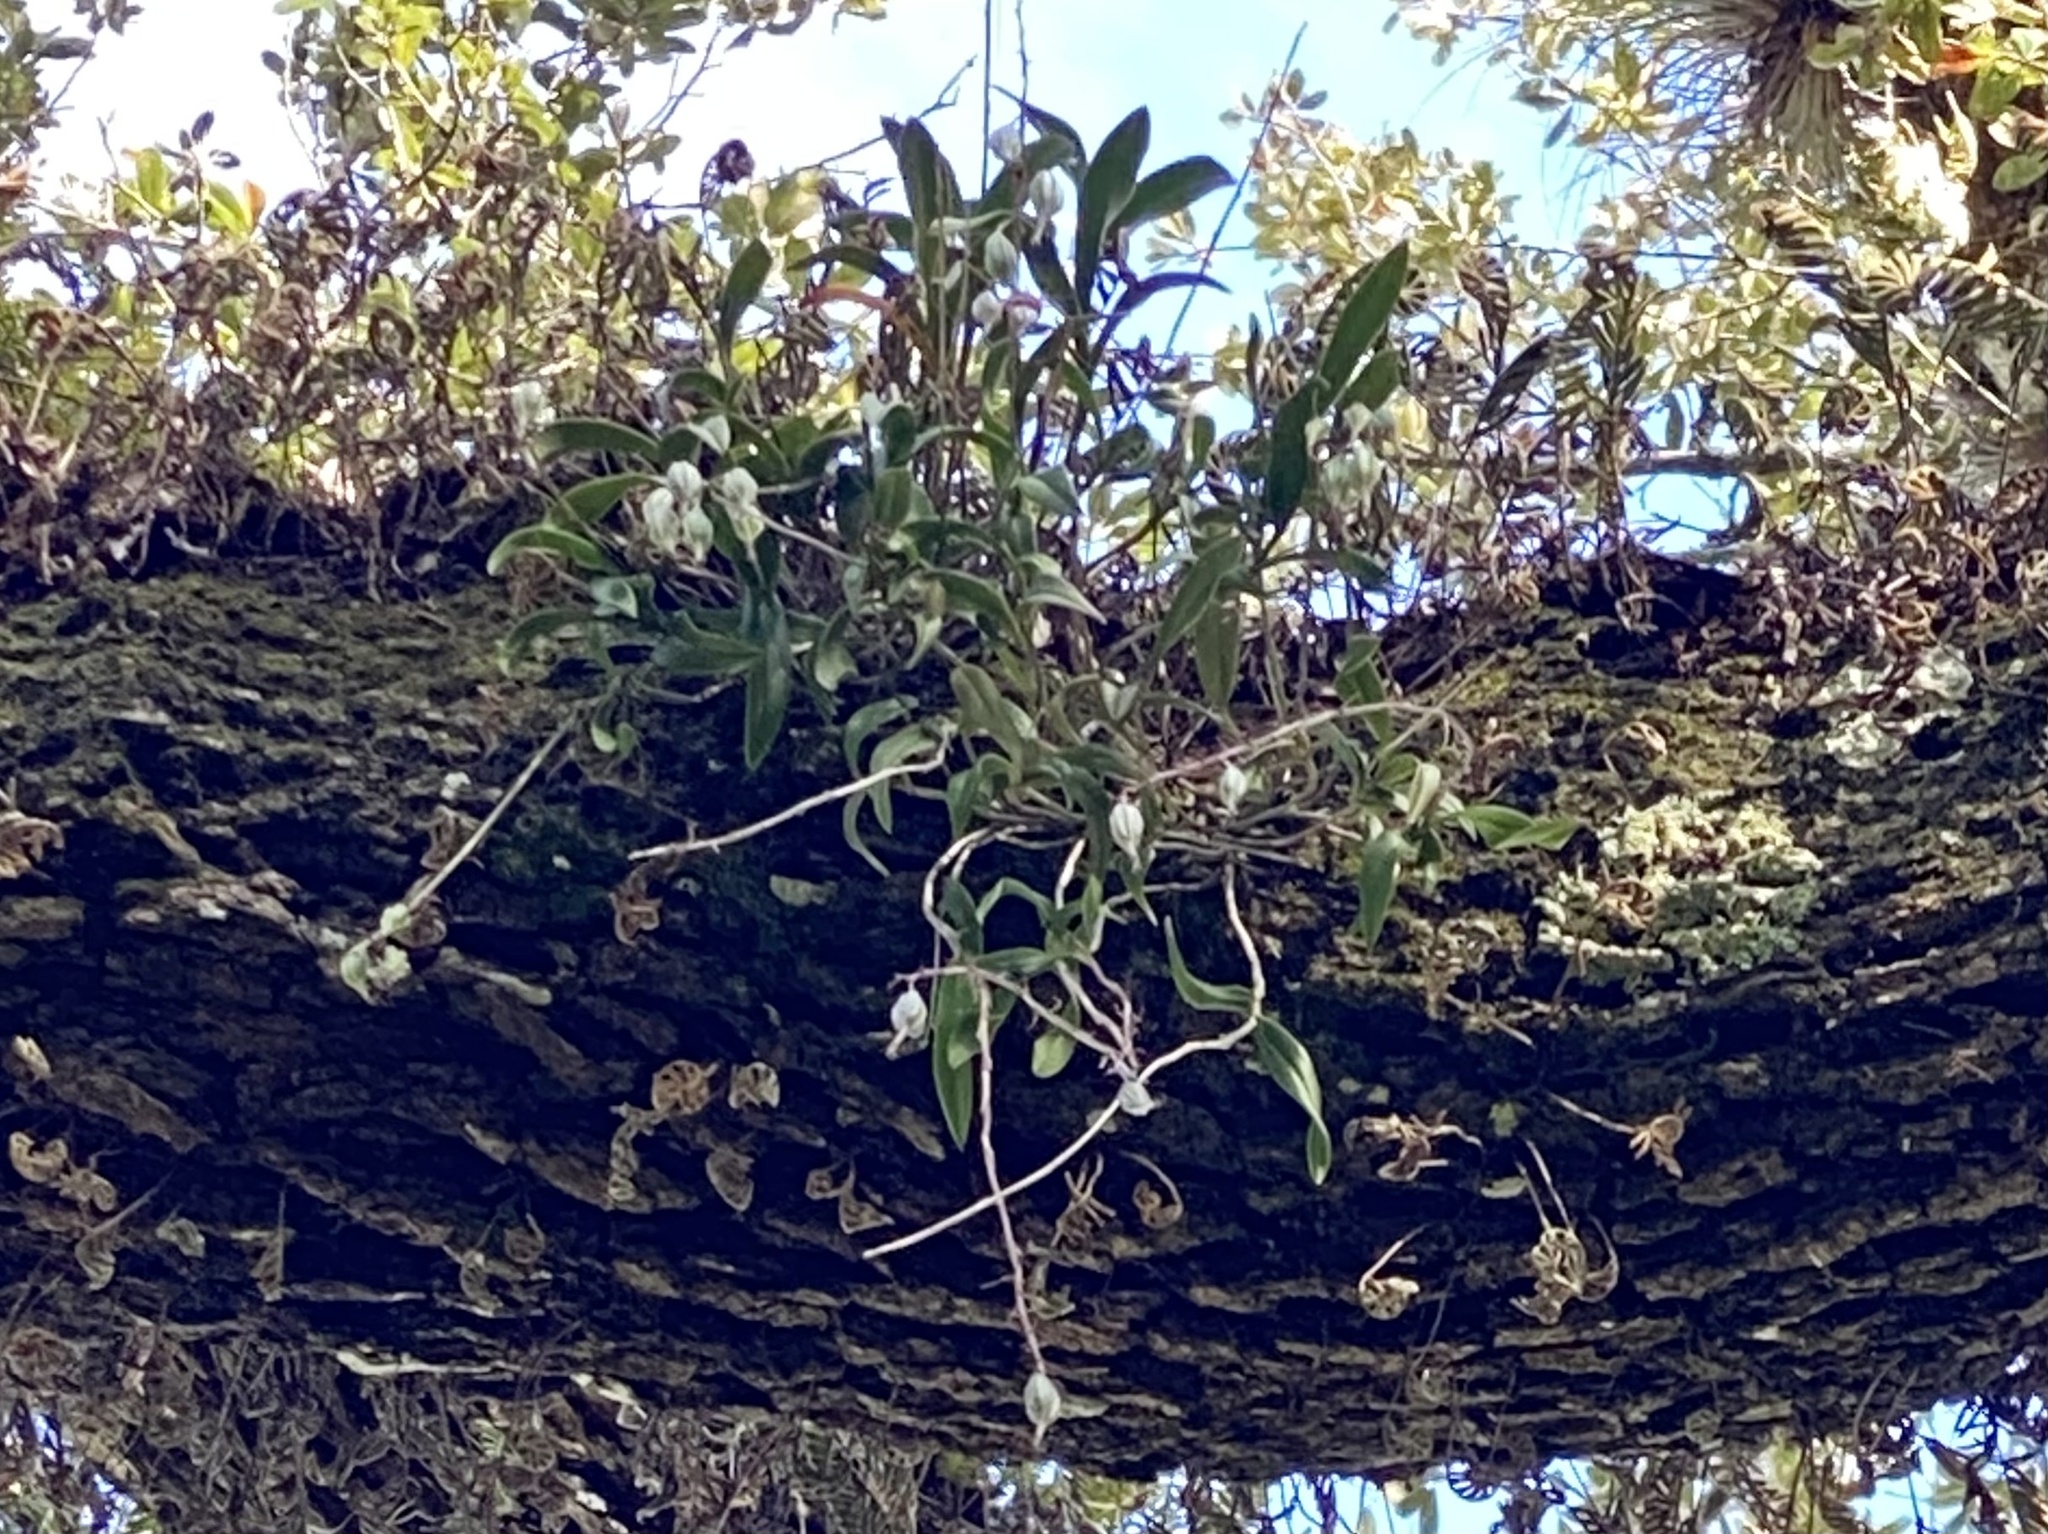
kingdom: Plantae
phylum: Tracheophyta
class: Liliopsida
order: Asparagales
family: Orchidaceae
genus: Epidendrum
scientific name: Epidendrum conopseum
